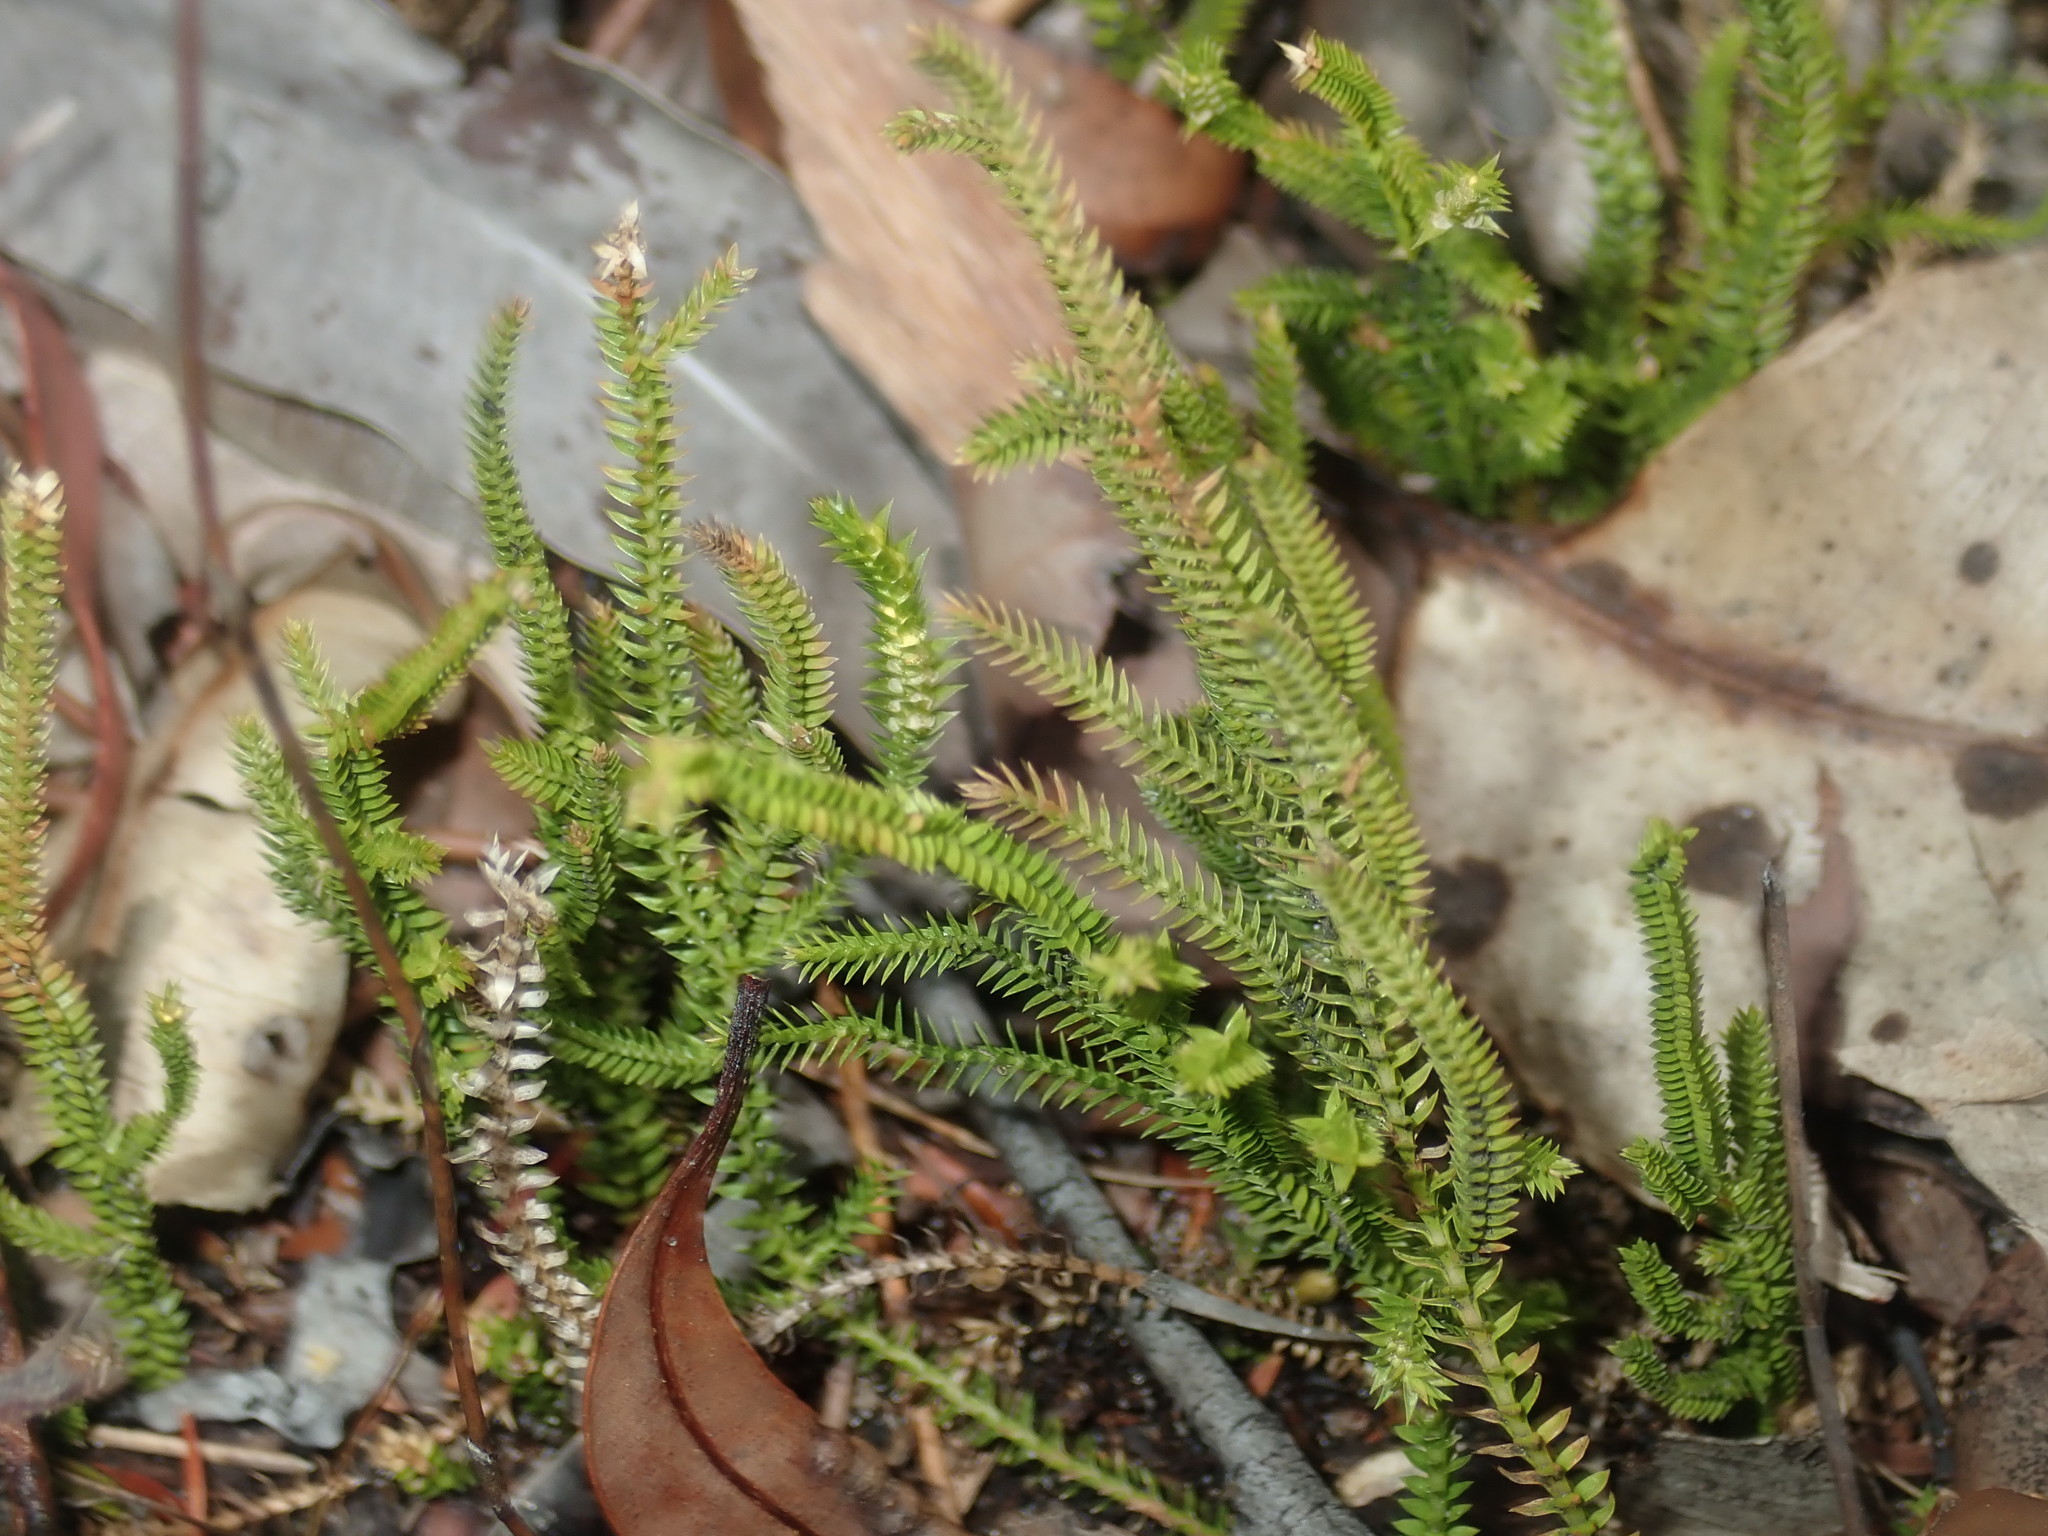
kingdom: Plantae
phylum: Tracheophyta
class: Lycopodiopsida
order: Selaginellales
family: Selaginellaceae
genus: Selaginella
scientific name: Selaginella uliginosa
